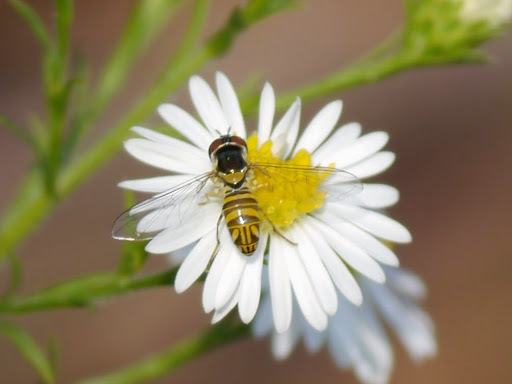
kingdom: Animalia
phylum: Arthropoda
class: Insecta
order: Diptera
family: Syrphidae
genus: Allograpta
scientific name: Allograpta obliqua
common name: Common oblique syrphid
